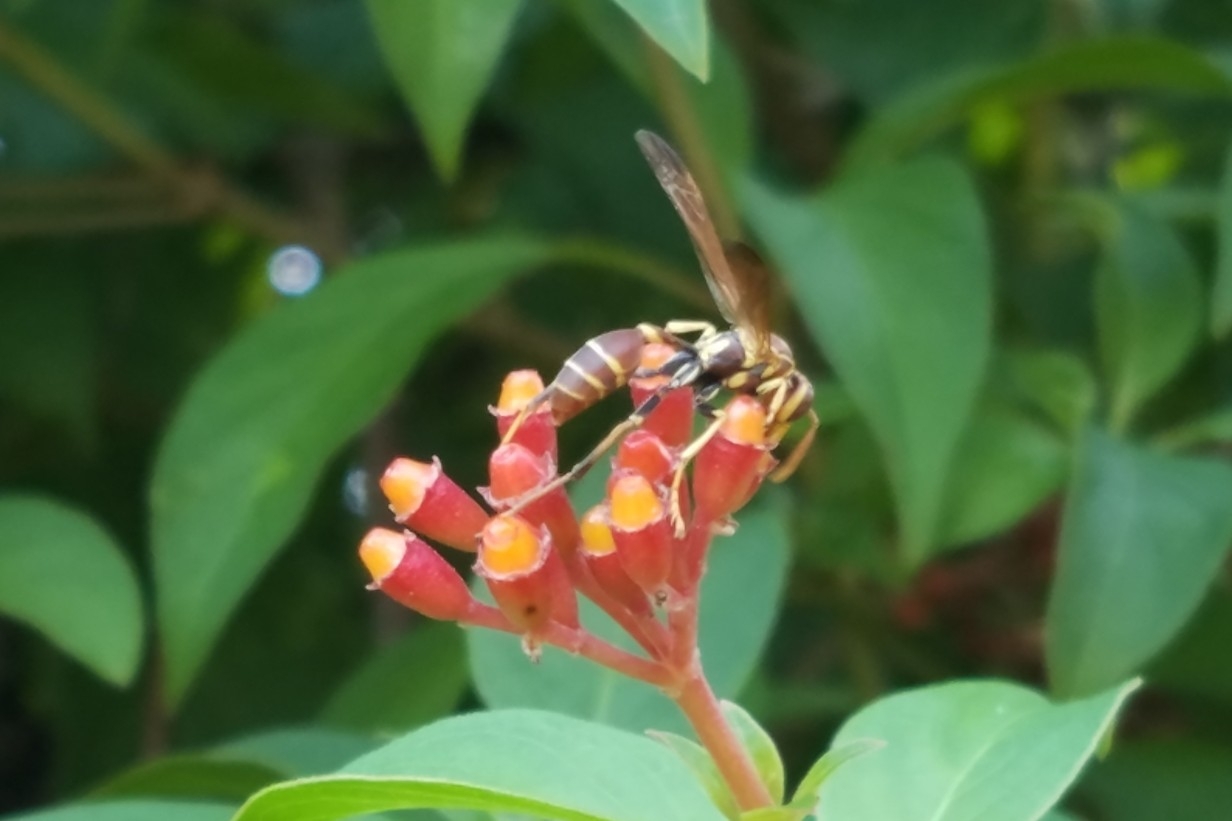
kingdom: Animalia
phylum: Arthropoda
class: Insecta
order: Hymenoptera
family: Vespidae
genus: Mischocyttarus
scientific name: Mischocyttarus mexicanus
